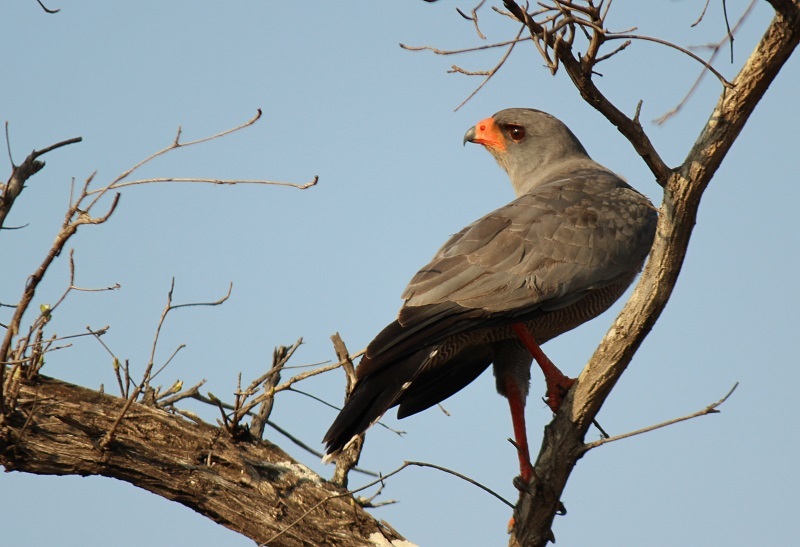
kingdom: Animalia
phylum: Chordata
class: Aves
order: Accipitriformes
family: Accipitridae
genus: Melierax
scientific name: Melierax metabates
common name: Dark chanting-goshawk
